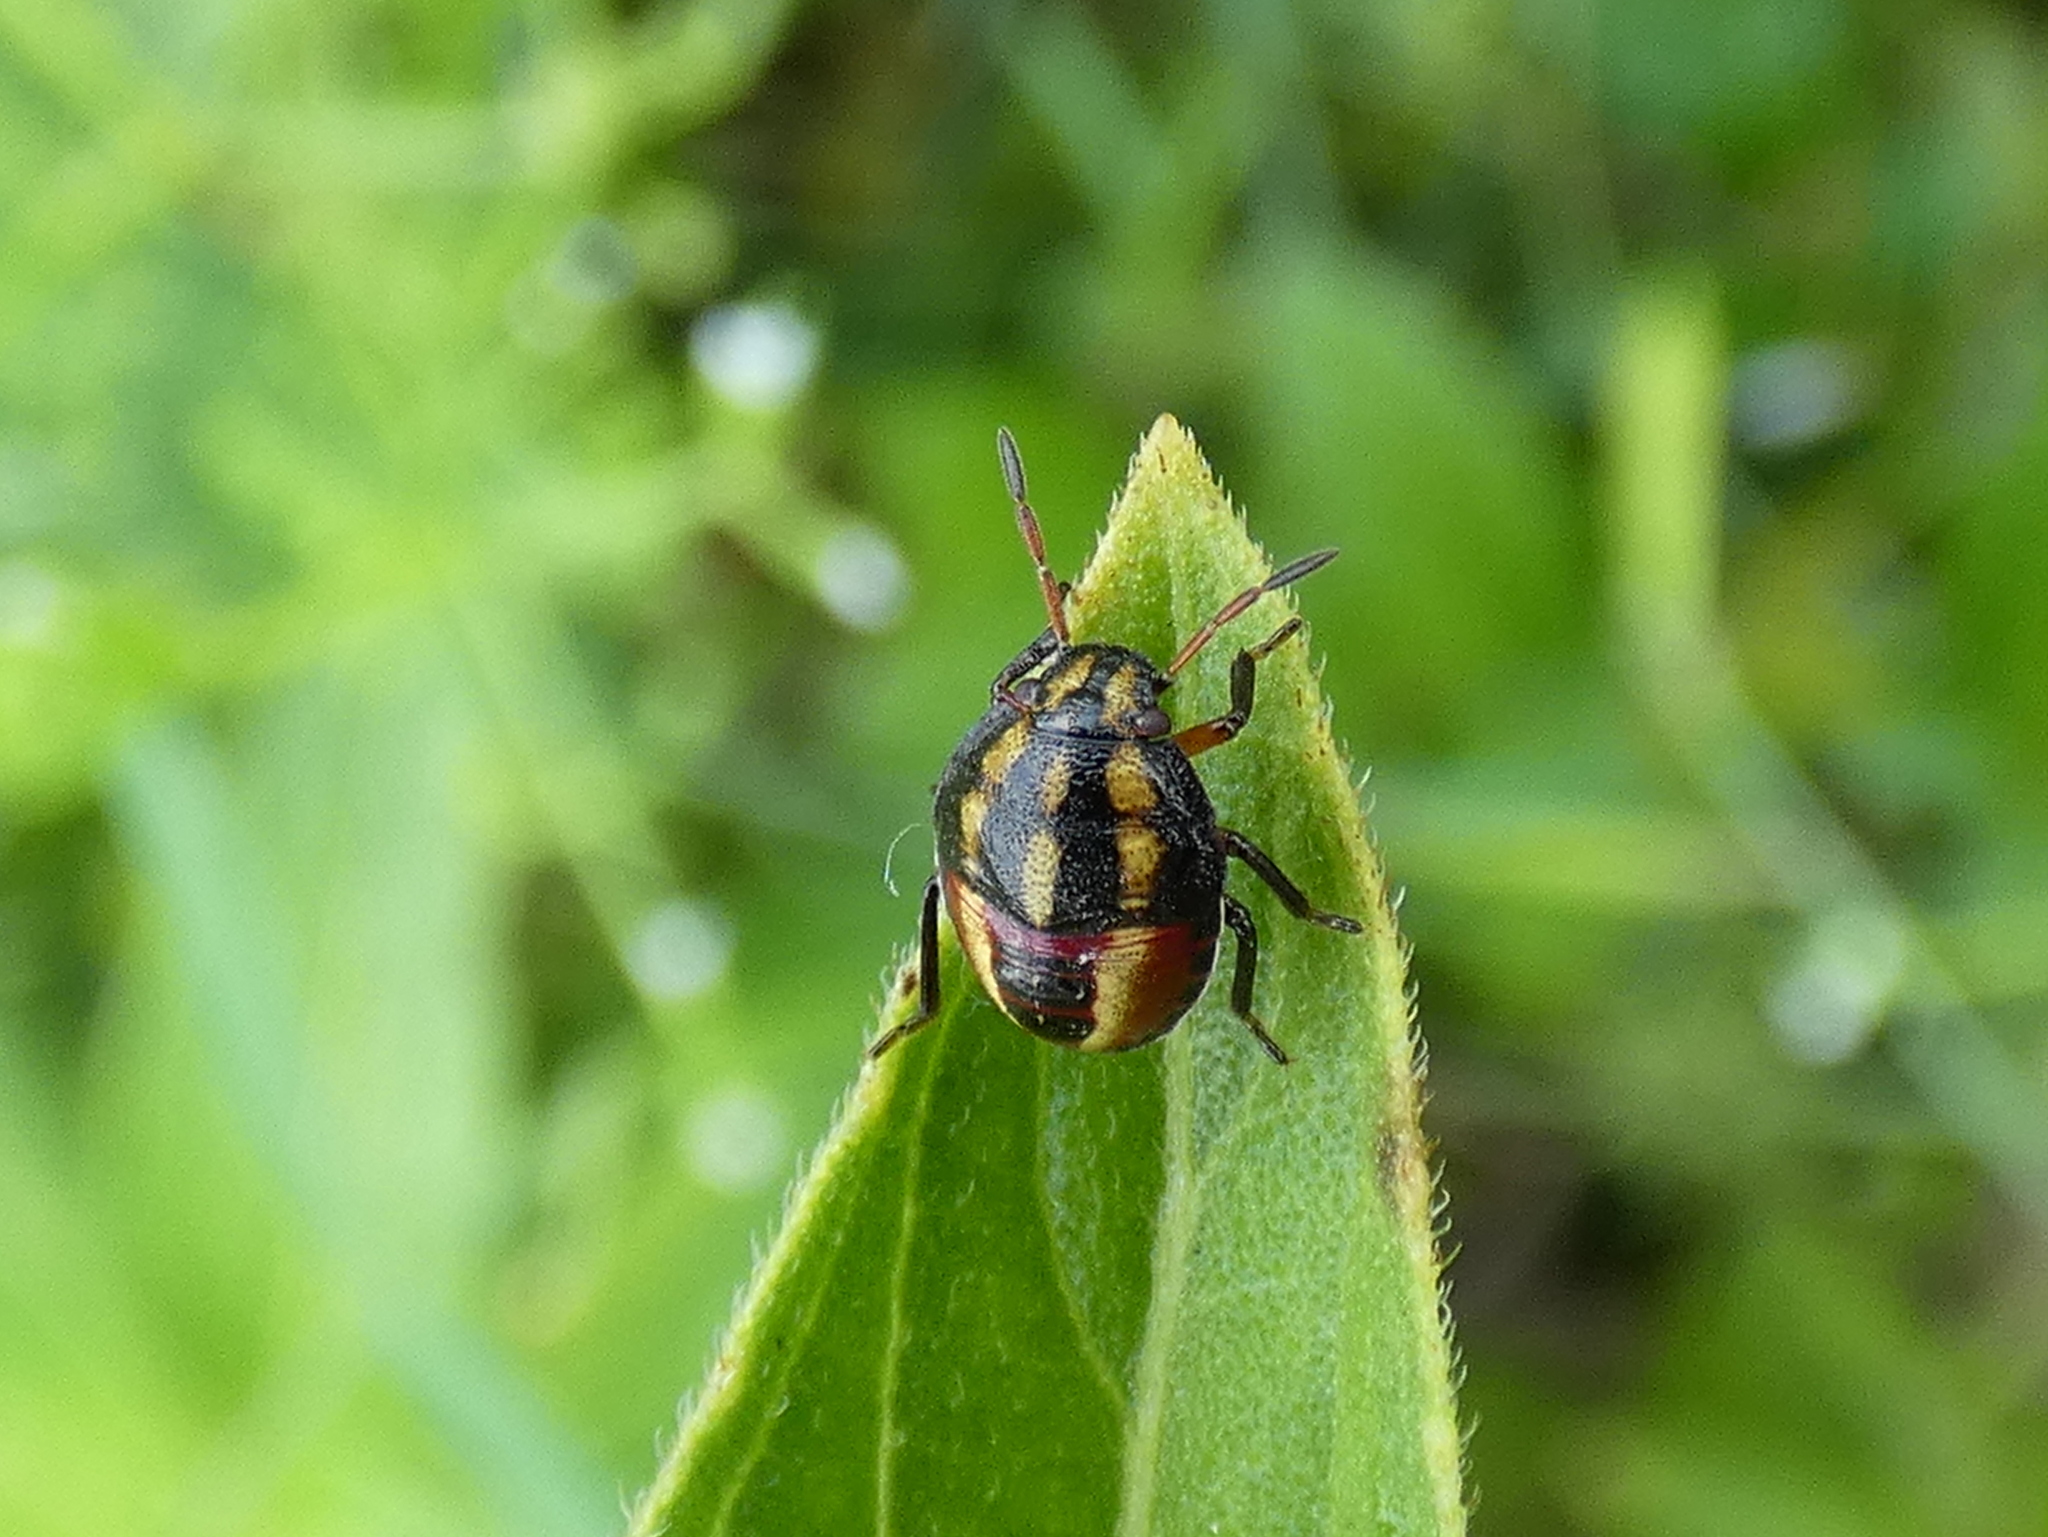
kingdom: Animalia
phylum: Arthropoda
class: Insecta
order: Hemiptera
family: Pentatomidae
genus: Piezodorus
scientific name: Piezodorus guildinii
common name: Redbanded stink bug
